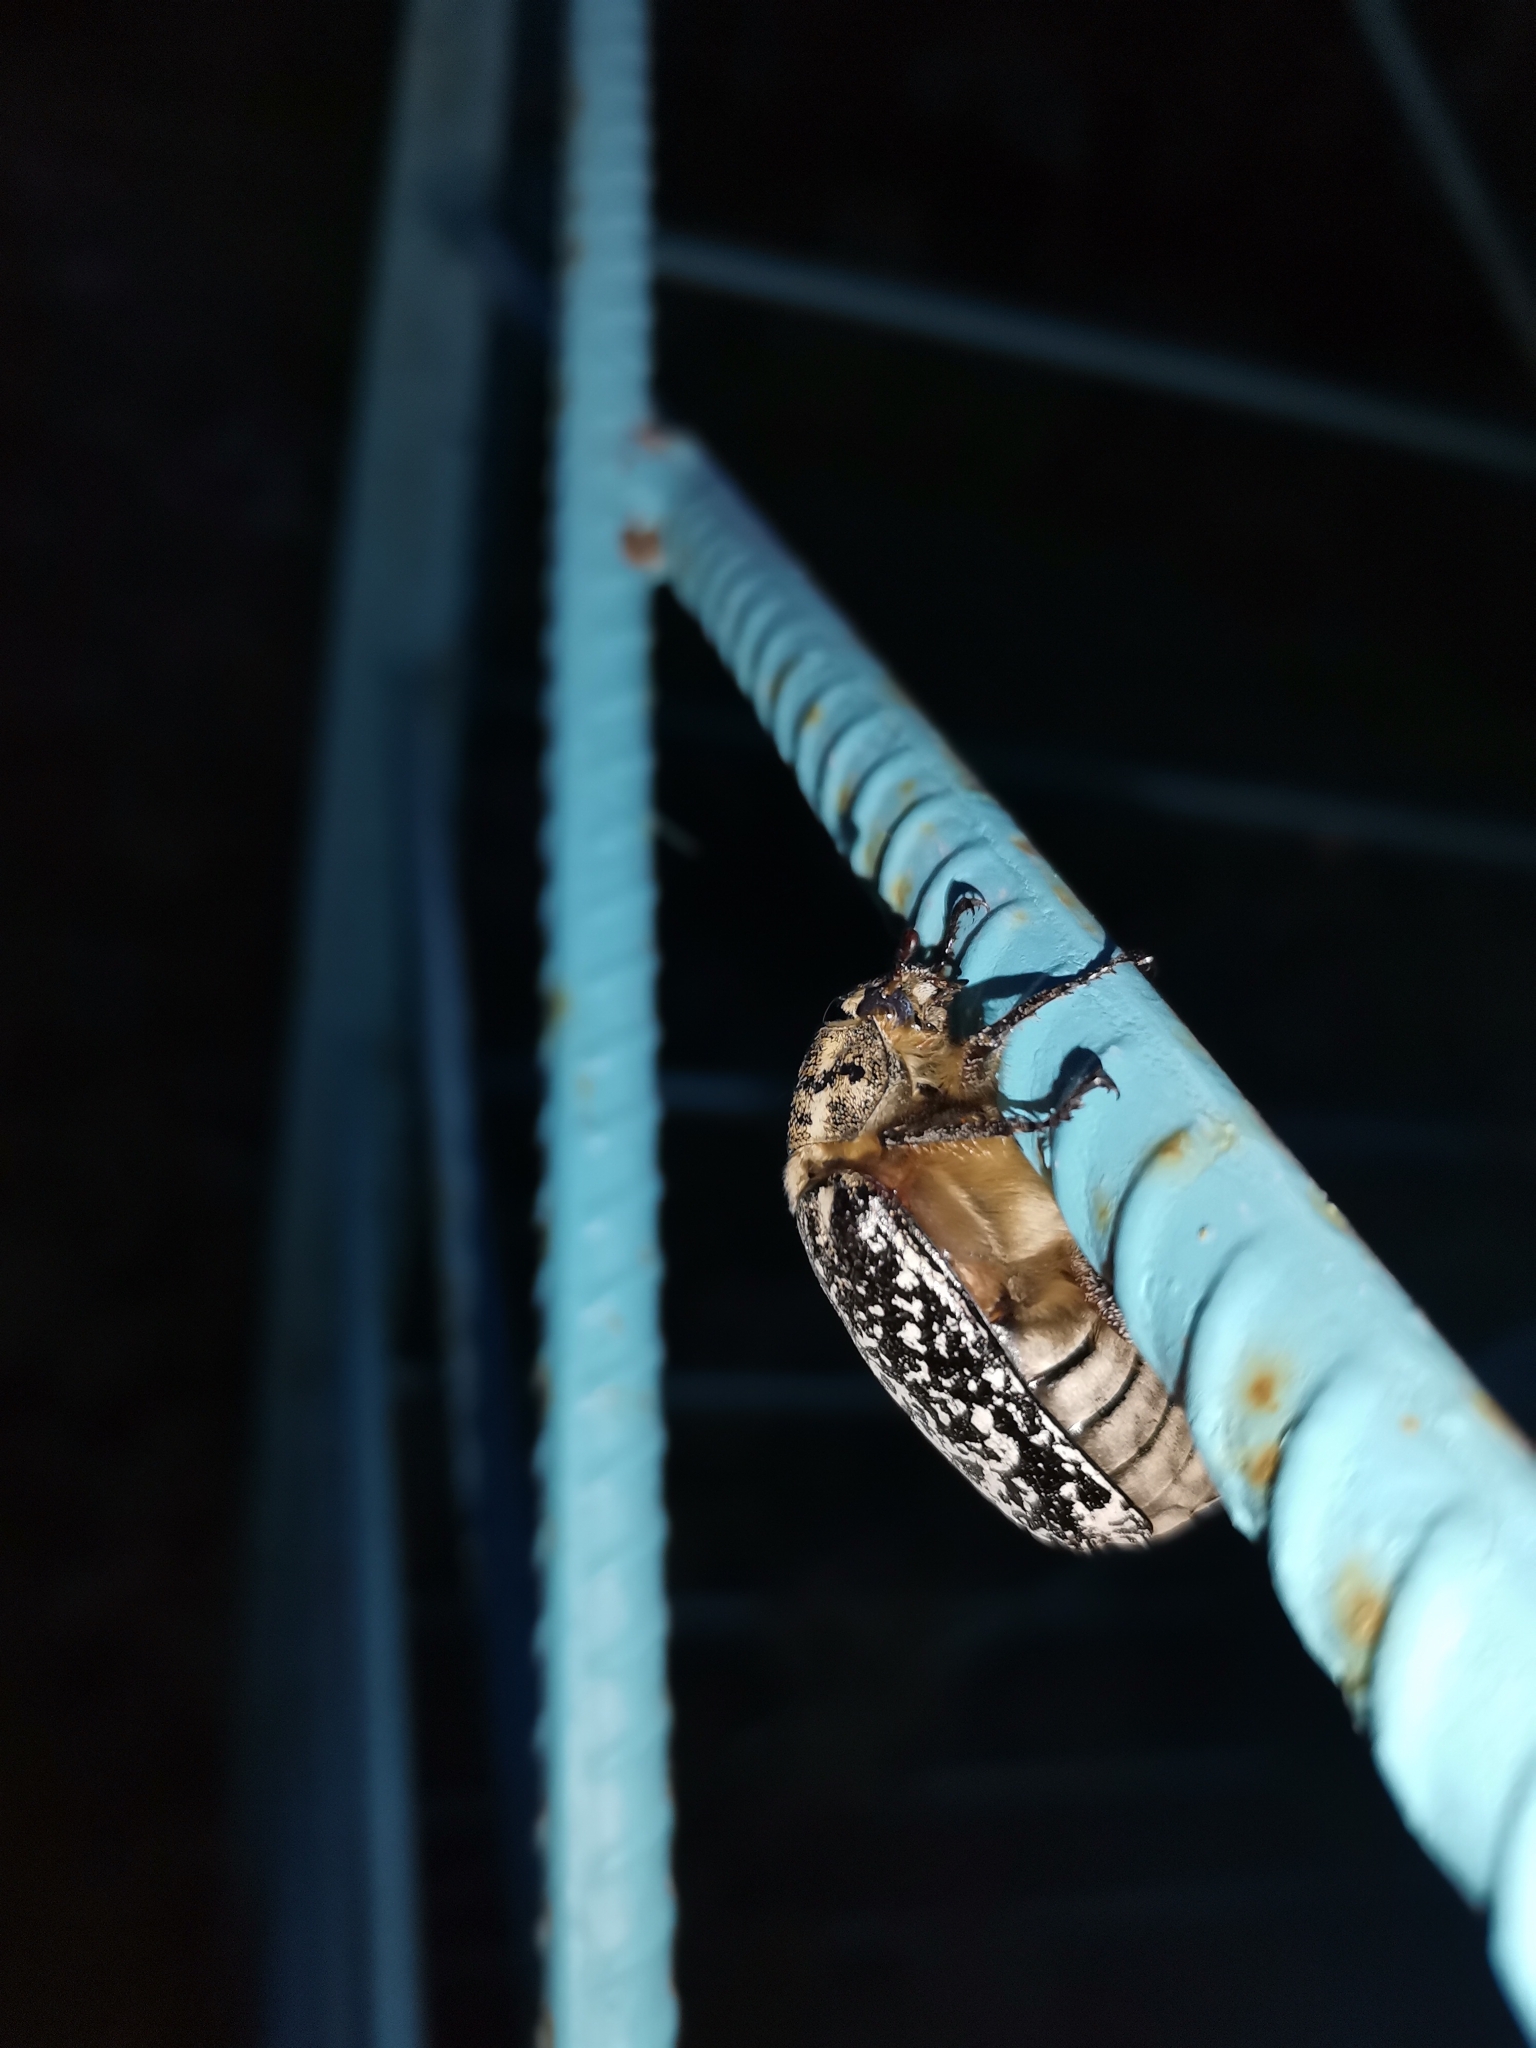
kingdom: Animalia
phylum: Arthropoda
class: Insecta
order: Coleoptera
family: Scarabaeidae
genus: Polyphylla
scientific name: Polyphylla fullo
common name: Pine chafer
